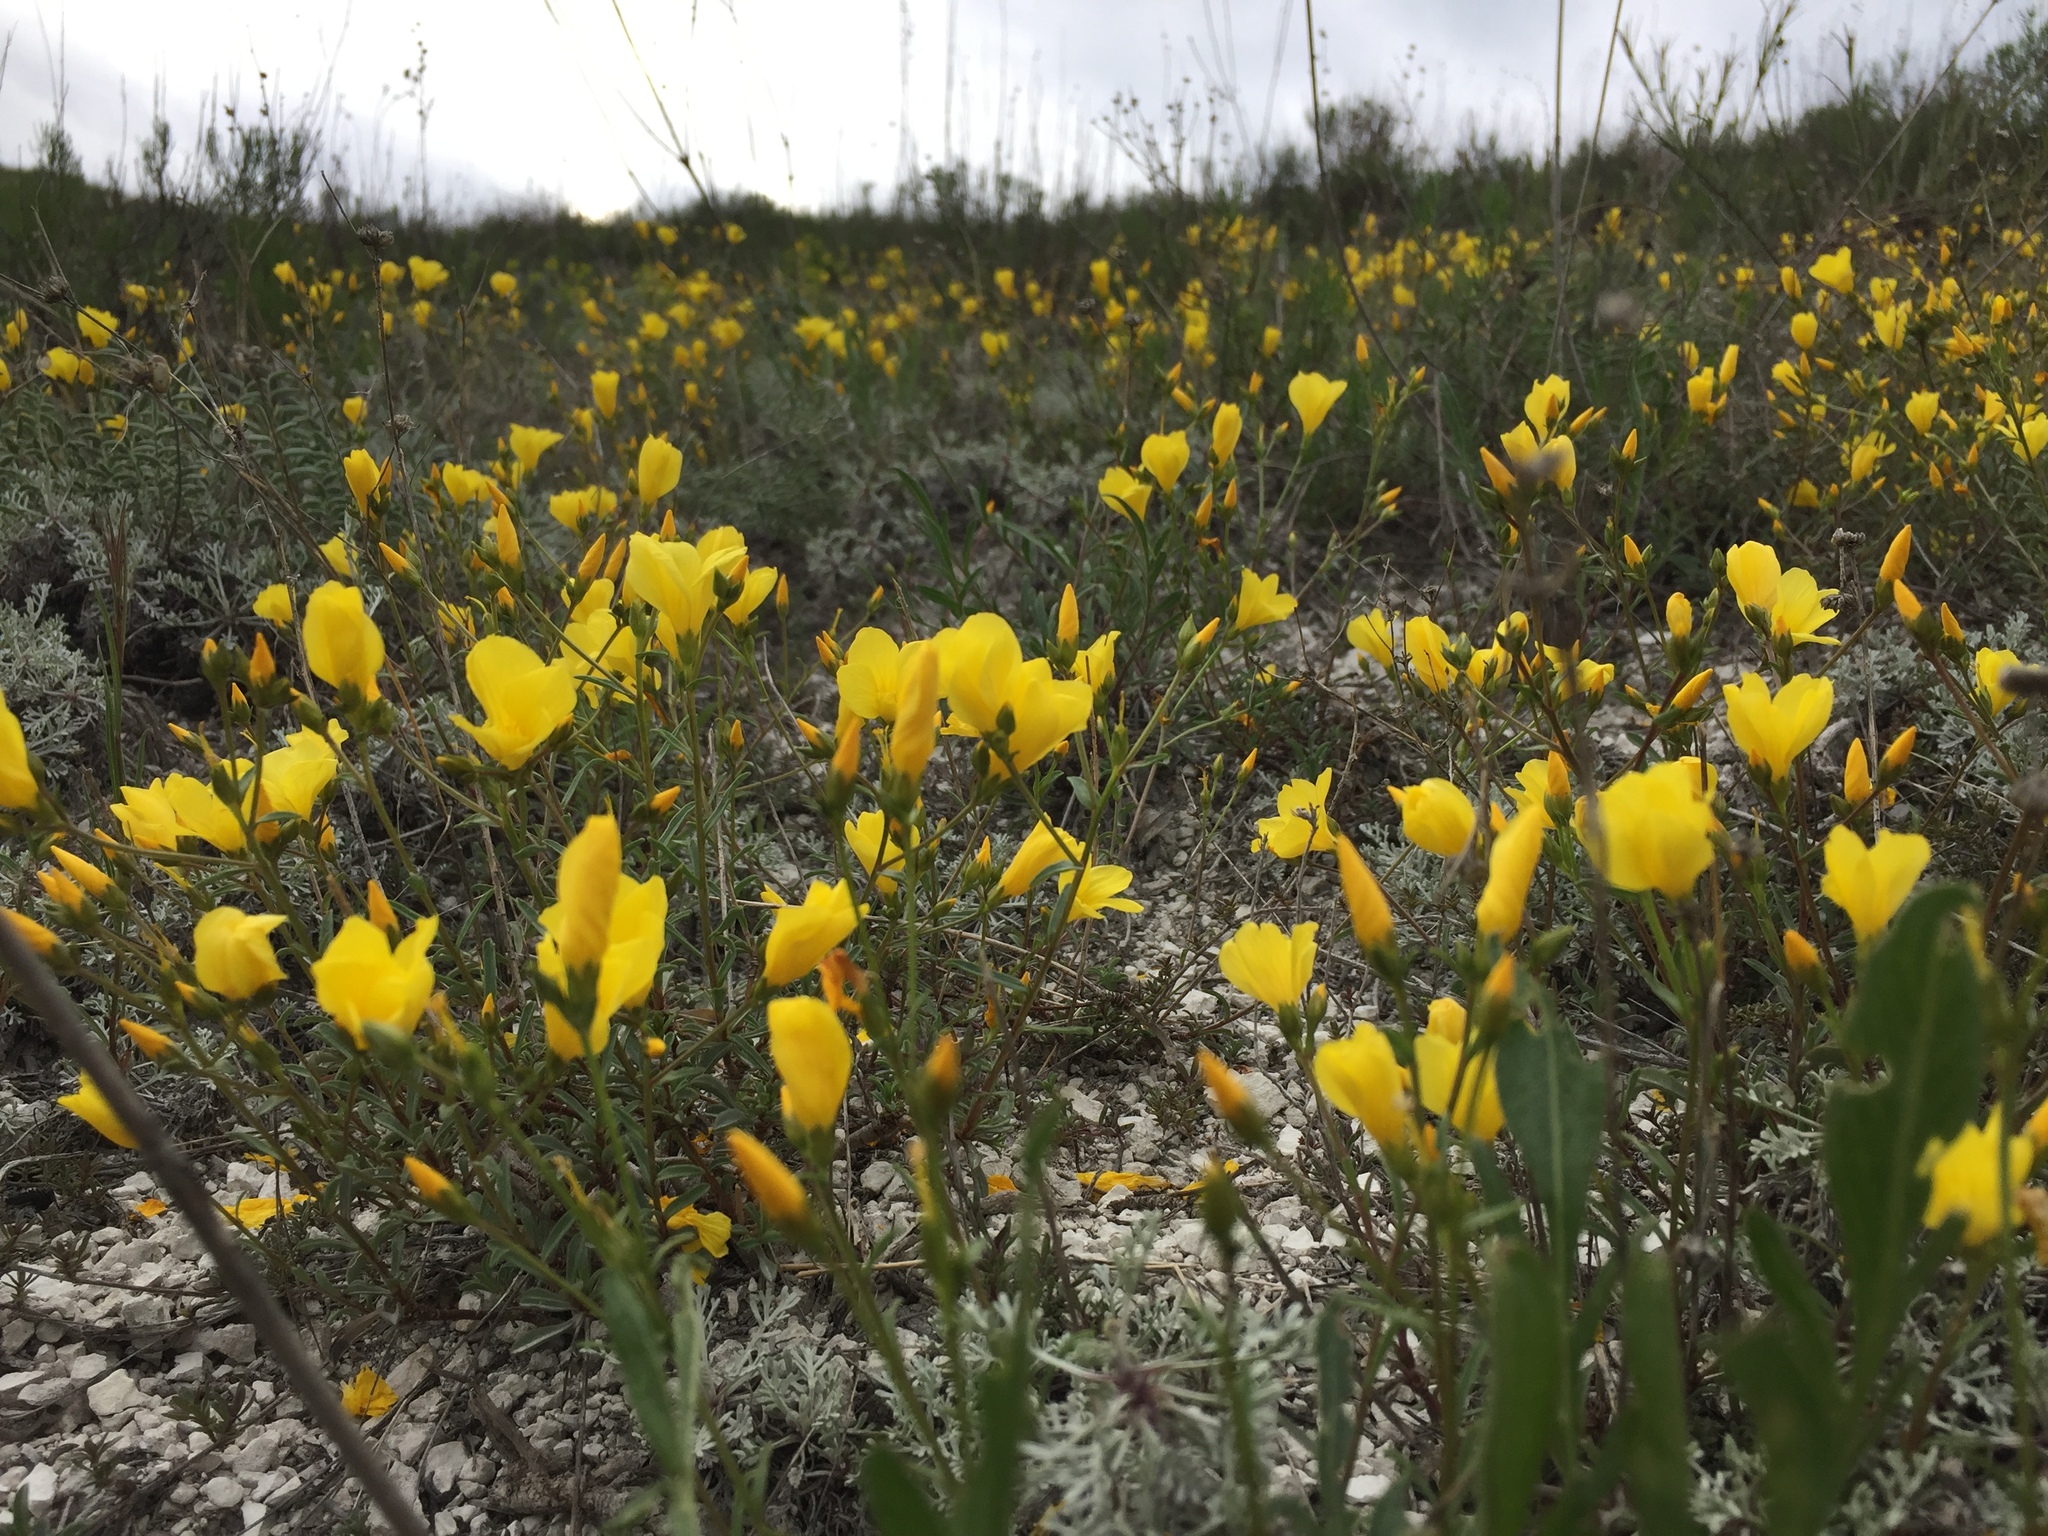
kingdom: Plantae
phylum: Tracheophyta
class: Magnoliopsida
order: Malpighiales
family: Linaceae
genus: Linum
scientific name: Linum ucranicum
